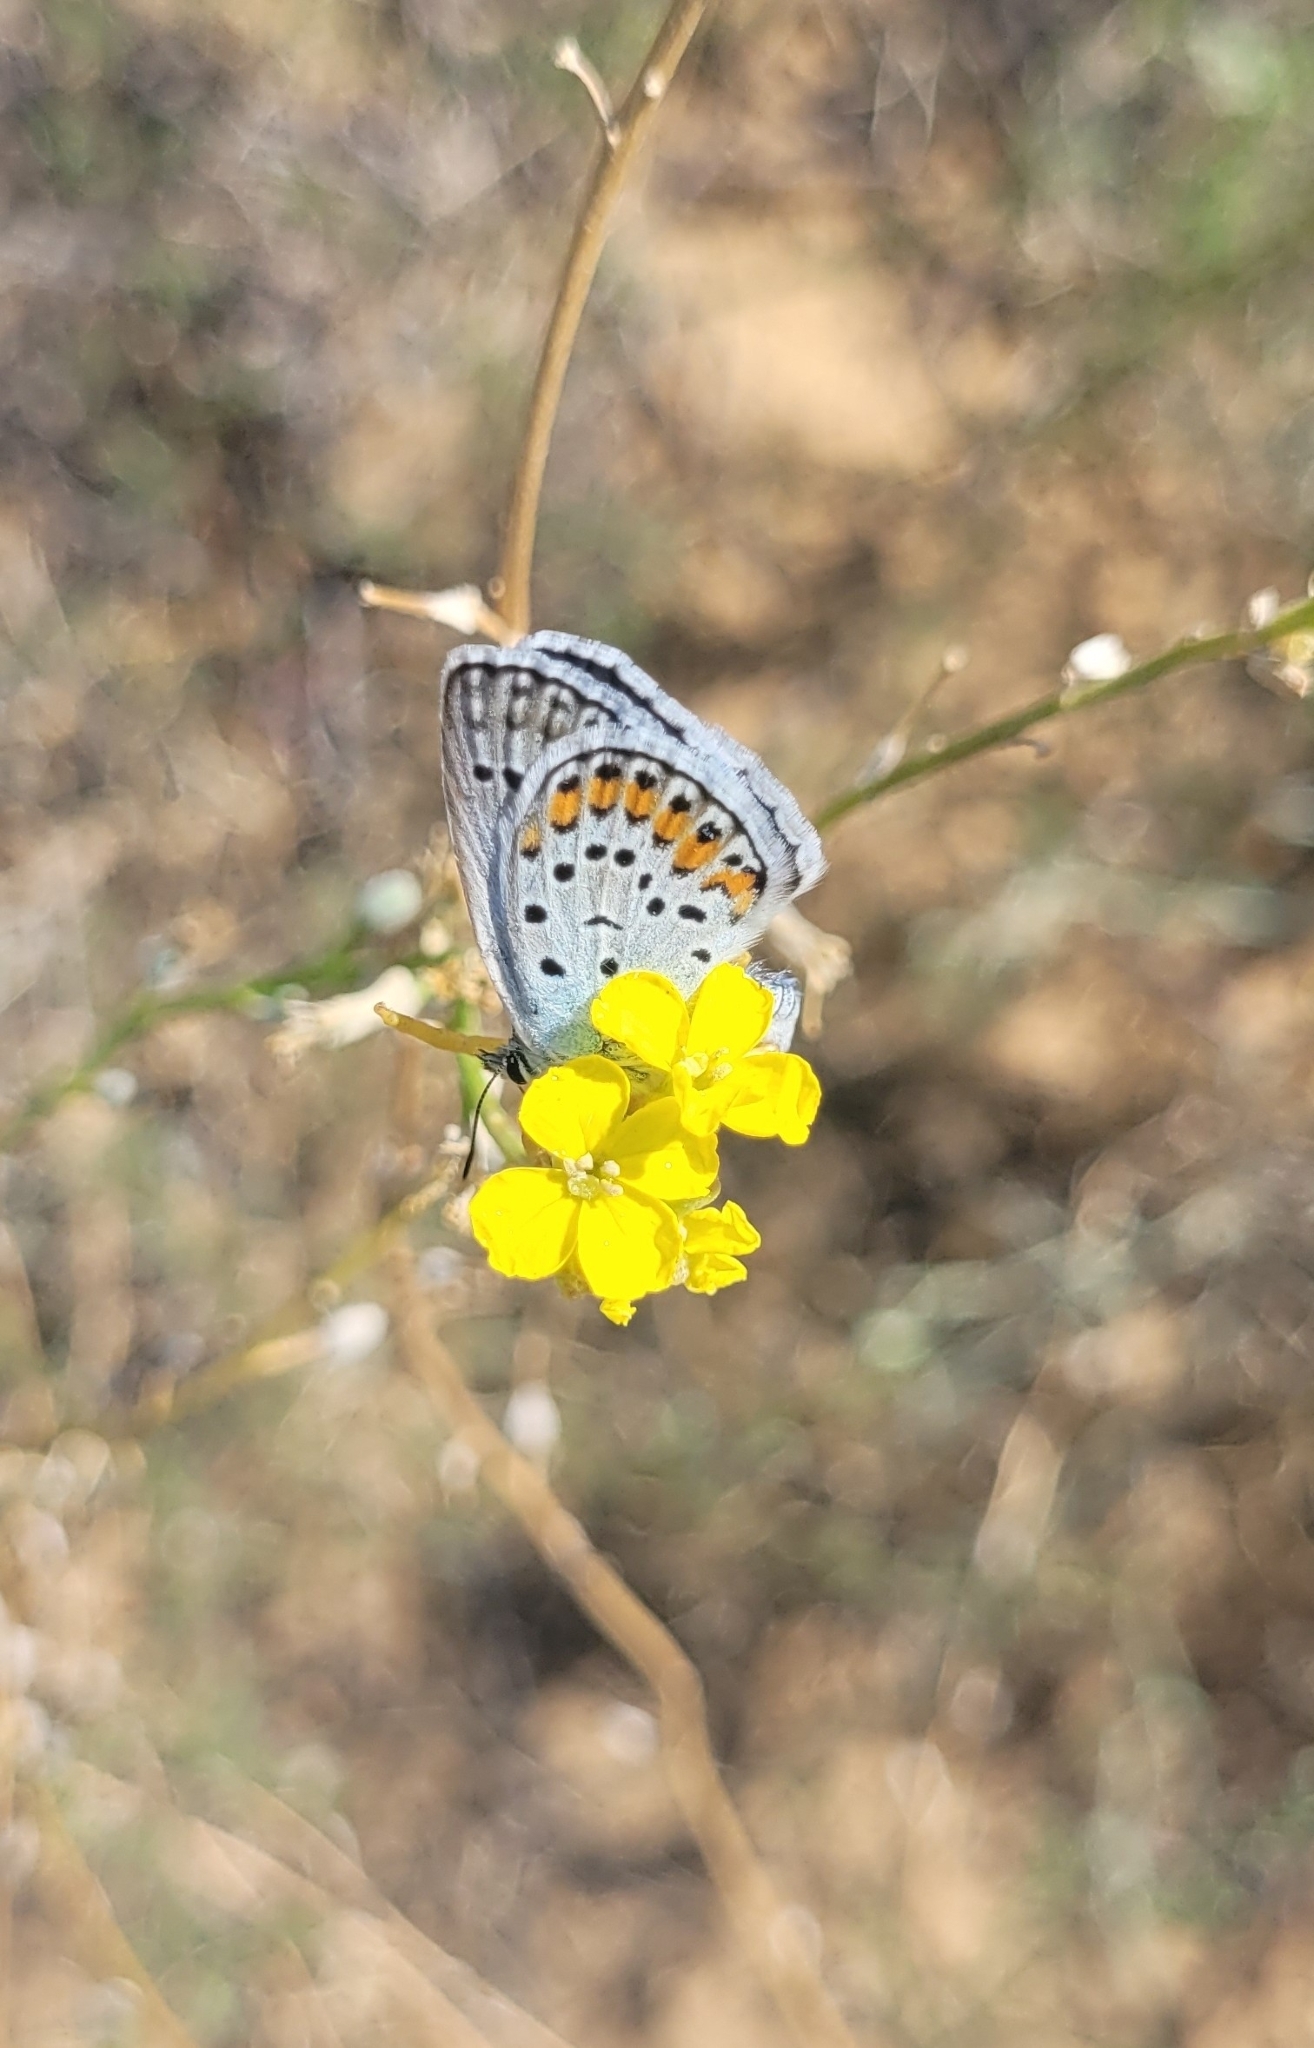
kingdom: Animalia
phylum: Arthropoda
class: Insecta
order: Lepidoptera
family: Lycaenidae
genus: Plebejus
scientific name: Plebejus argus
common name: Silver-studded blue
